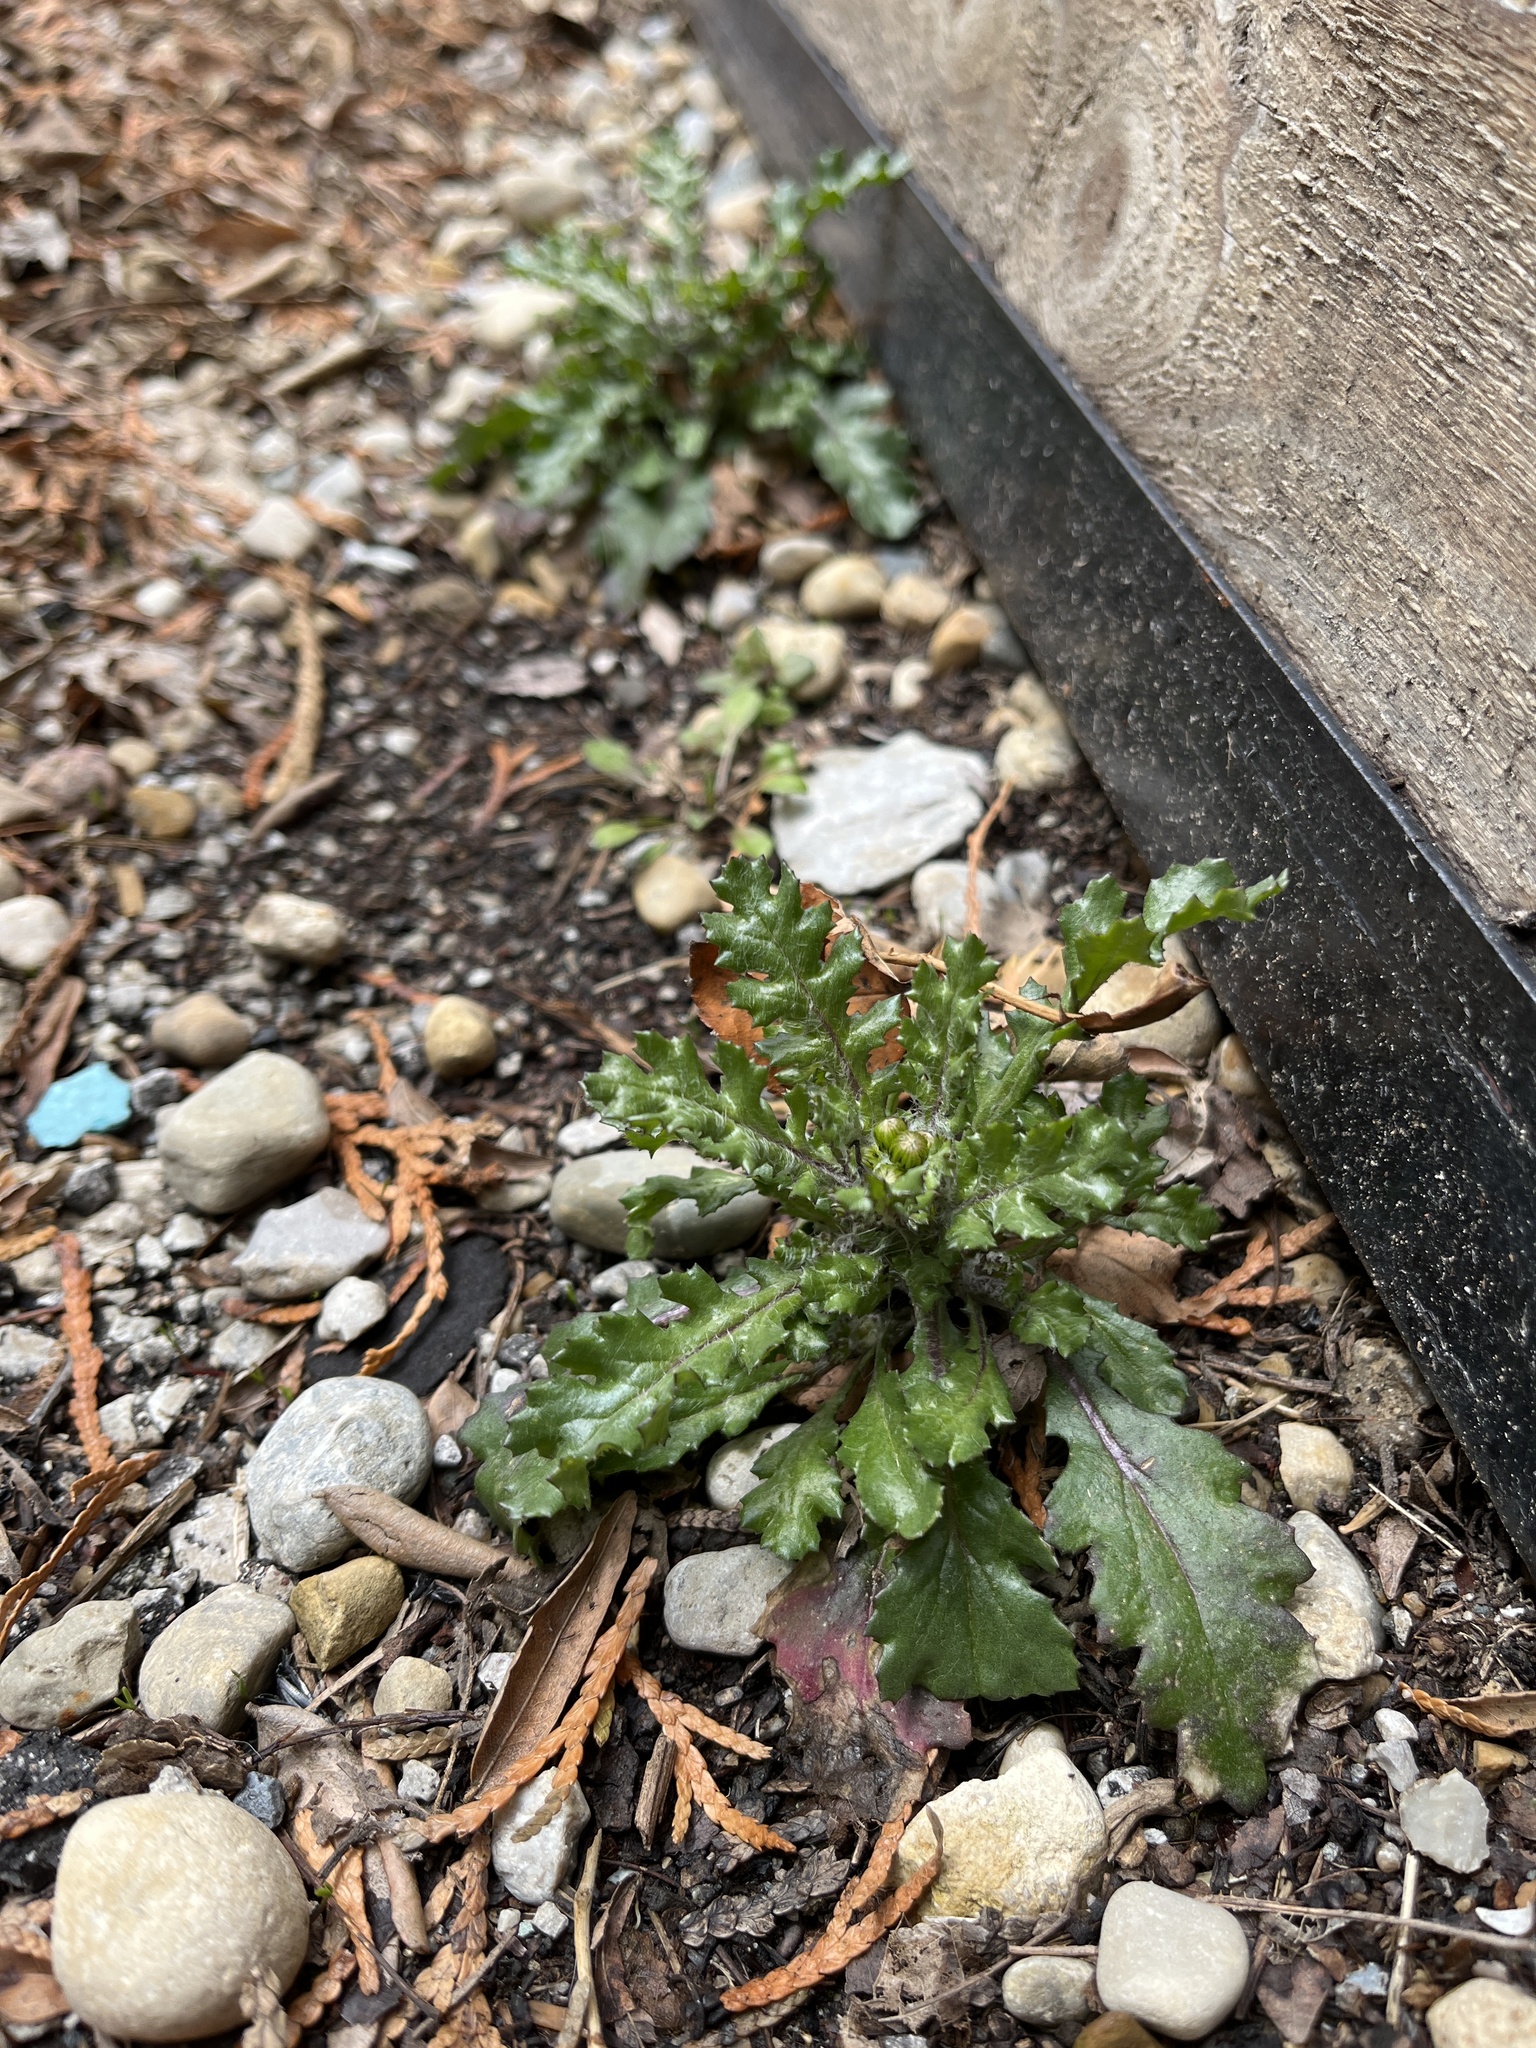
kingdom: Plantae
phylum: Tracheophyta
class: Magnoliopsida
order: Asterales
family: Asteraceae
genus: Senecio
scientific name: Senecio vulgaris
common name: Old-man-in-the-spring
